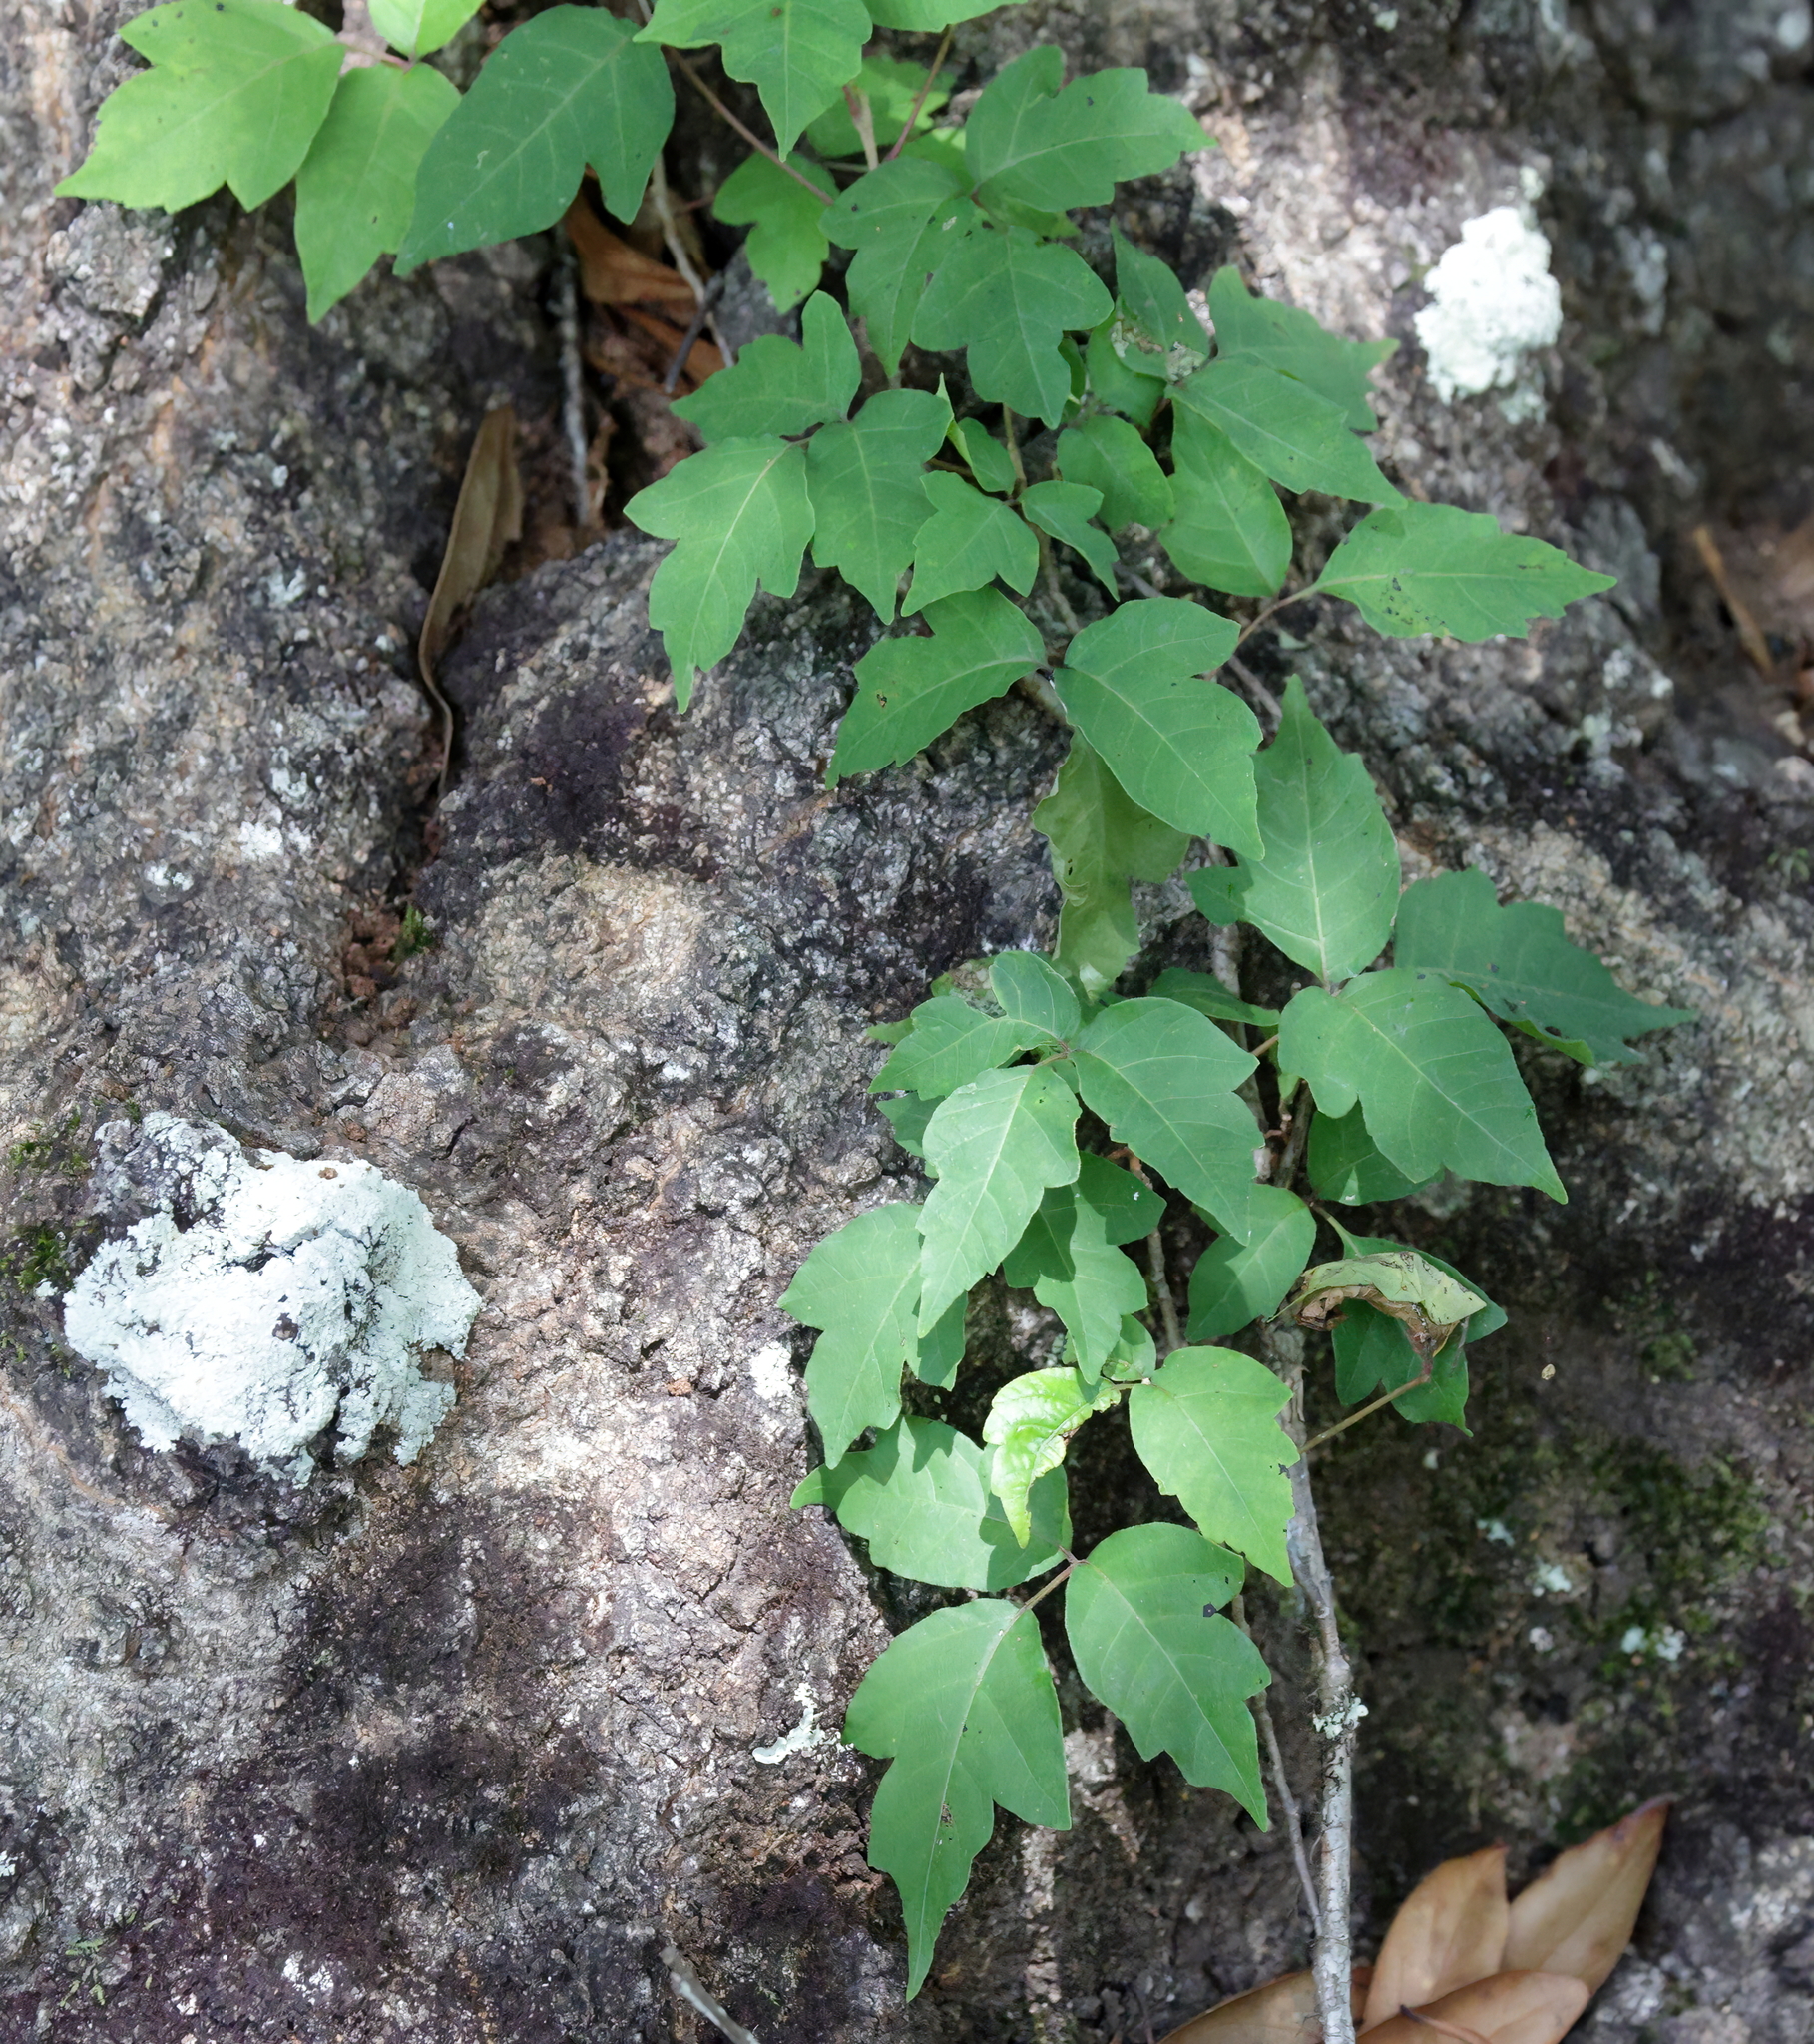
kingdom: Plantae
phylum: Tracheophyta
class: Magnoliopsida
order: Sapindales
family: Anacardiaceae
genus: Toxicodendron
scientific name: Toxicodendron radicans
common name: Poison ivy
